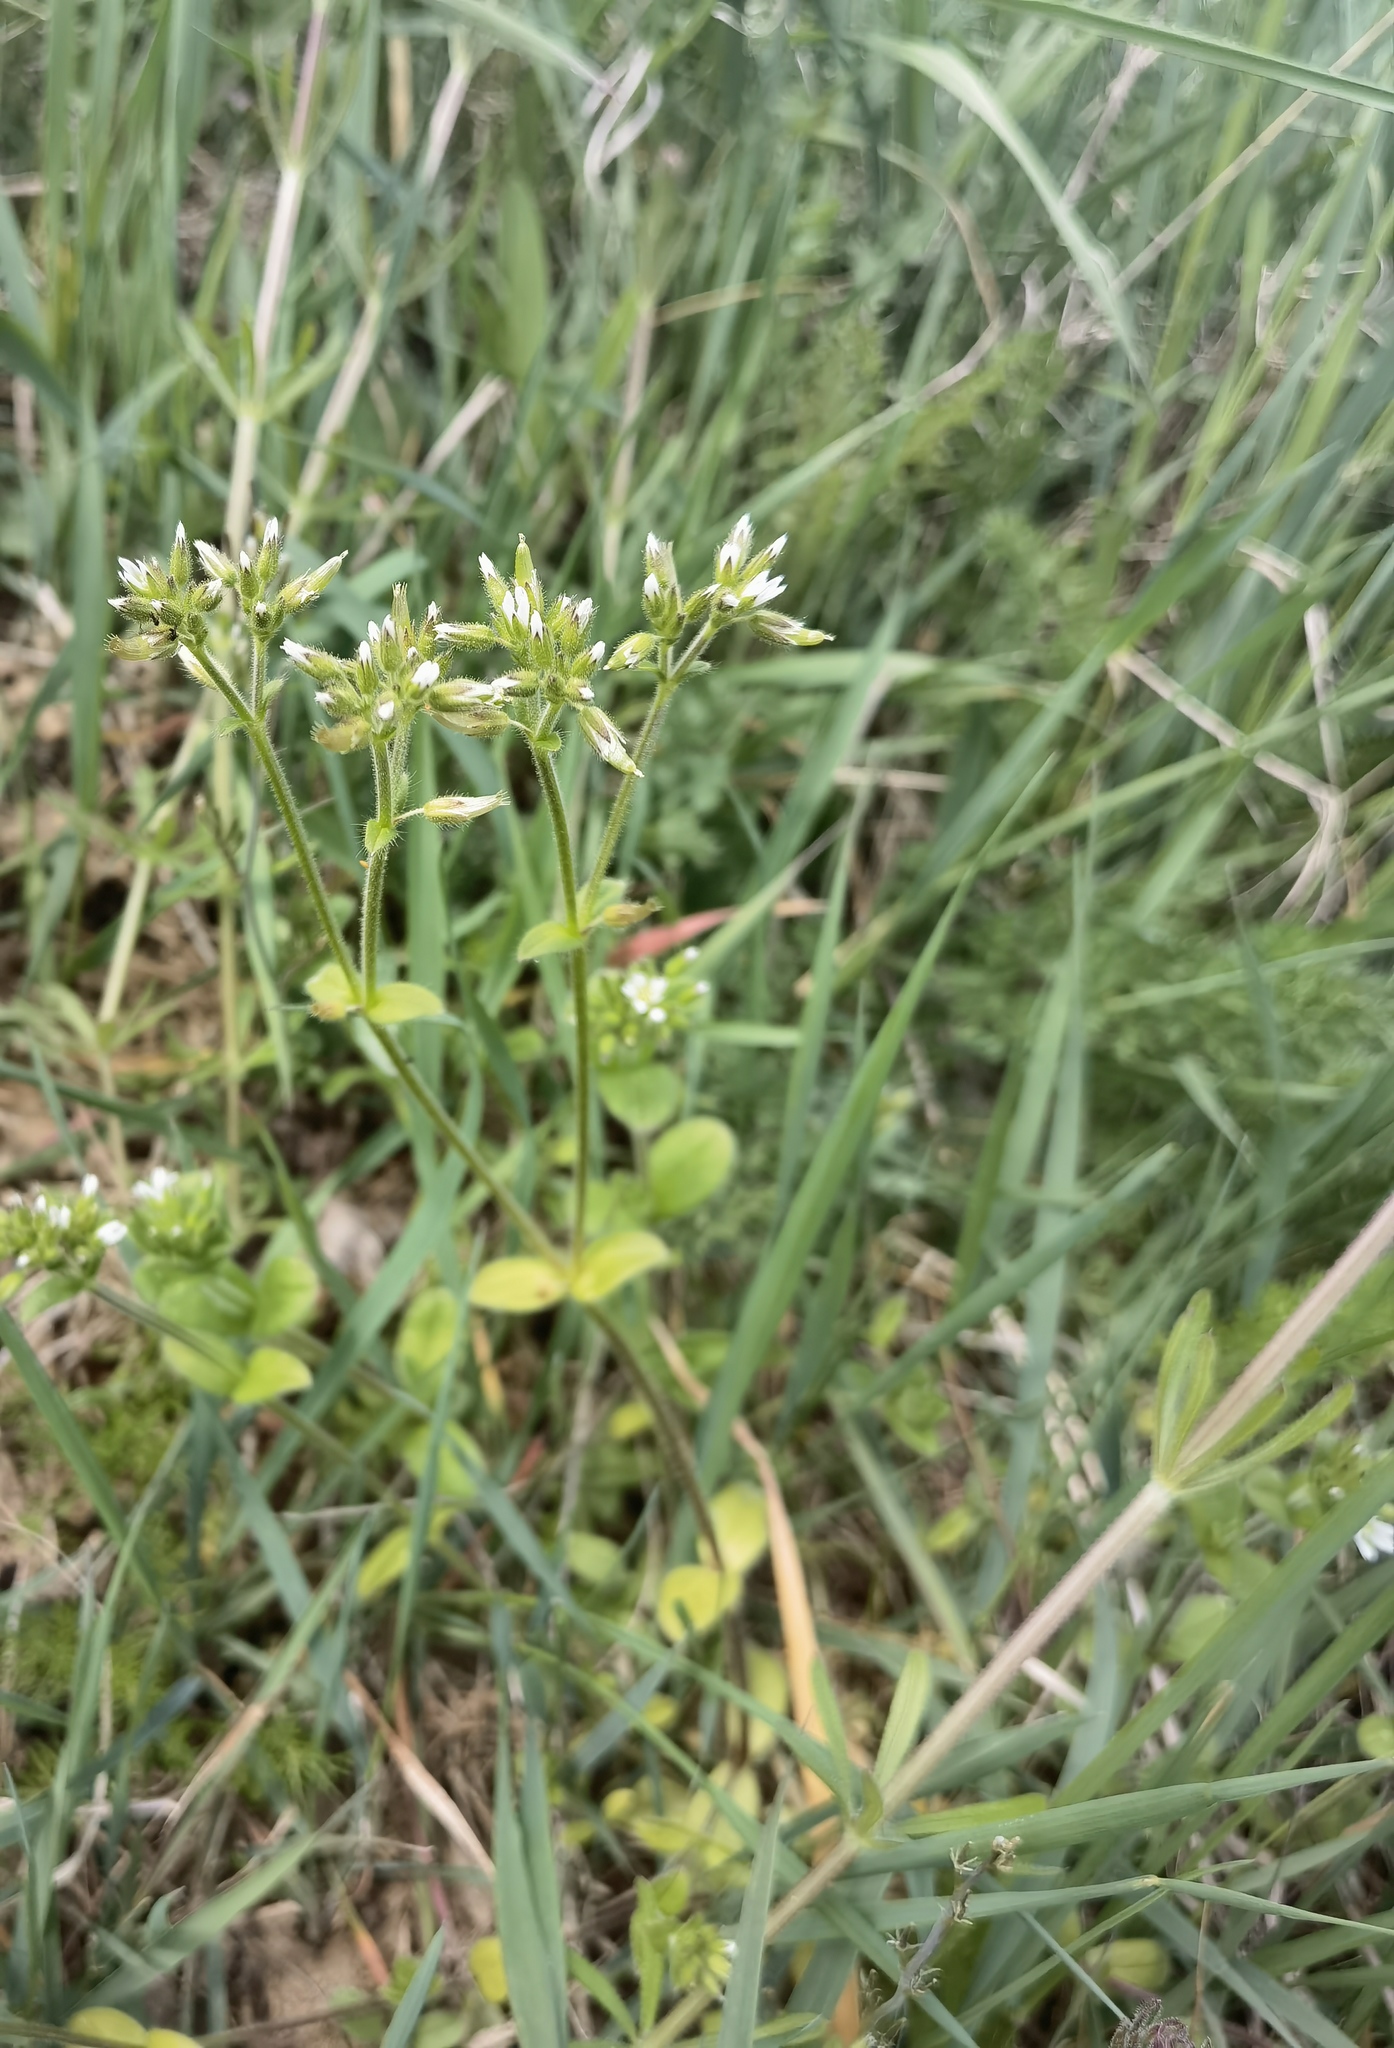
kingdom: Plantae
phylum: Tracheophyta
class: Magnoliopsida
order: Caryophyllales
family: Caryophyllaceae
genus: Cerastium
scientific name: Cerastium glomeratum
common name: Sticky chickweed
